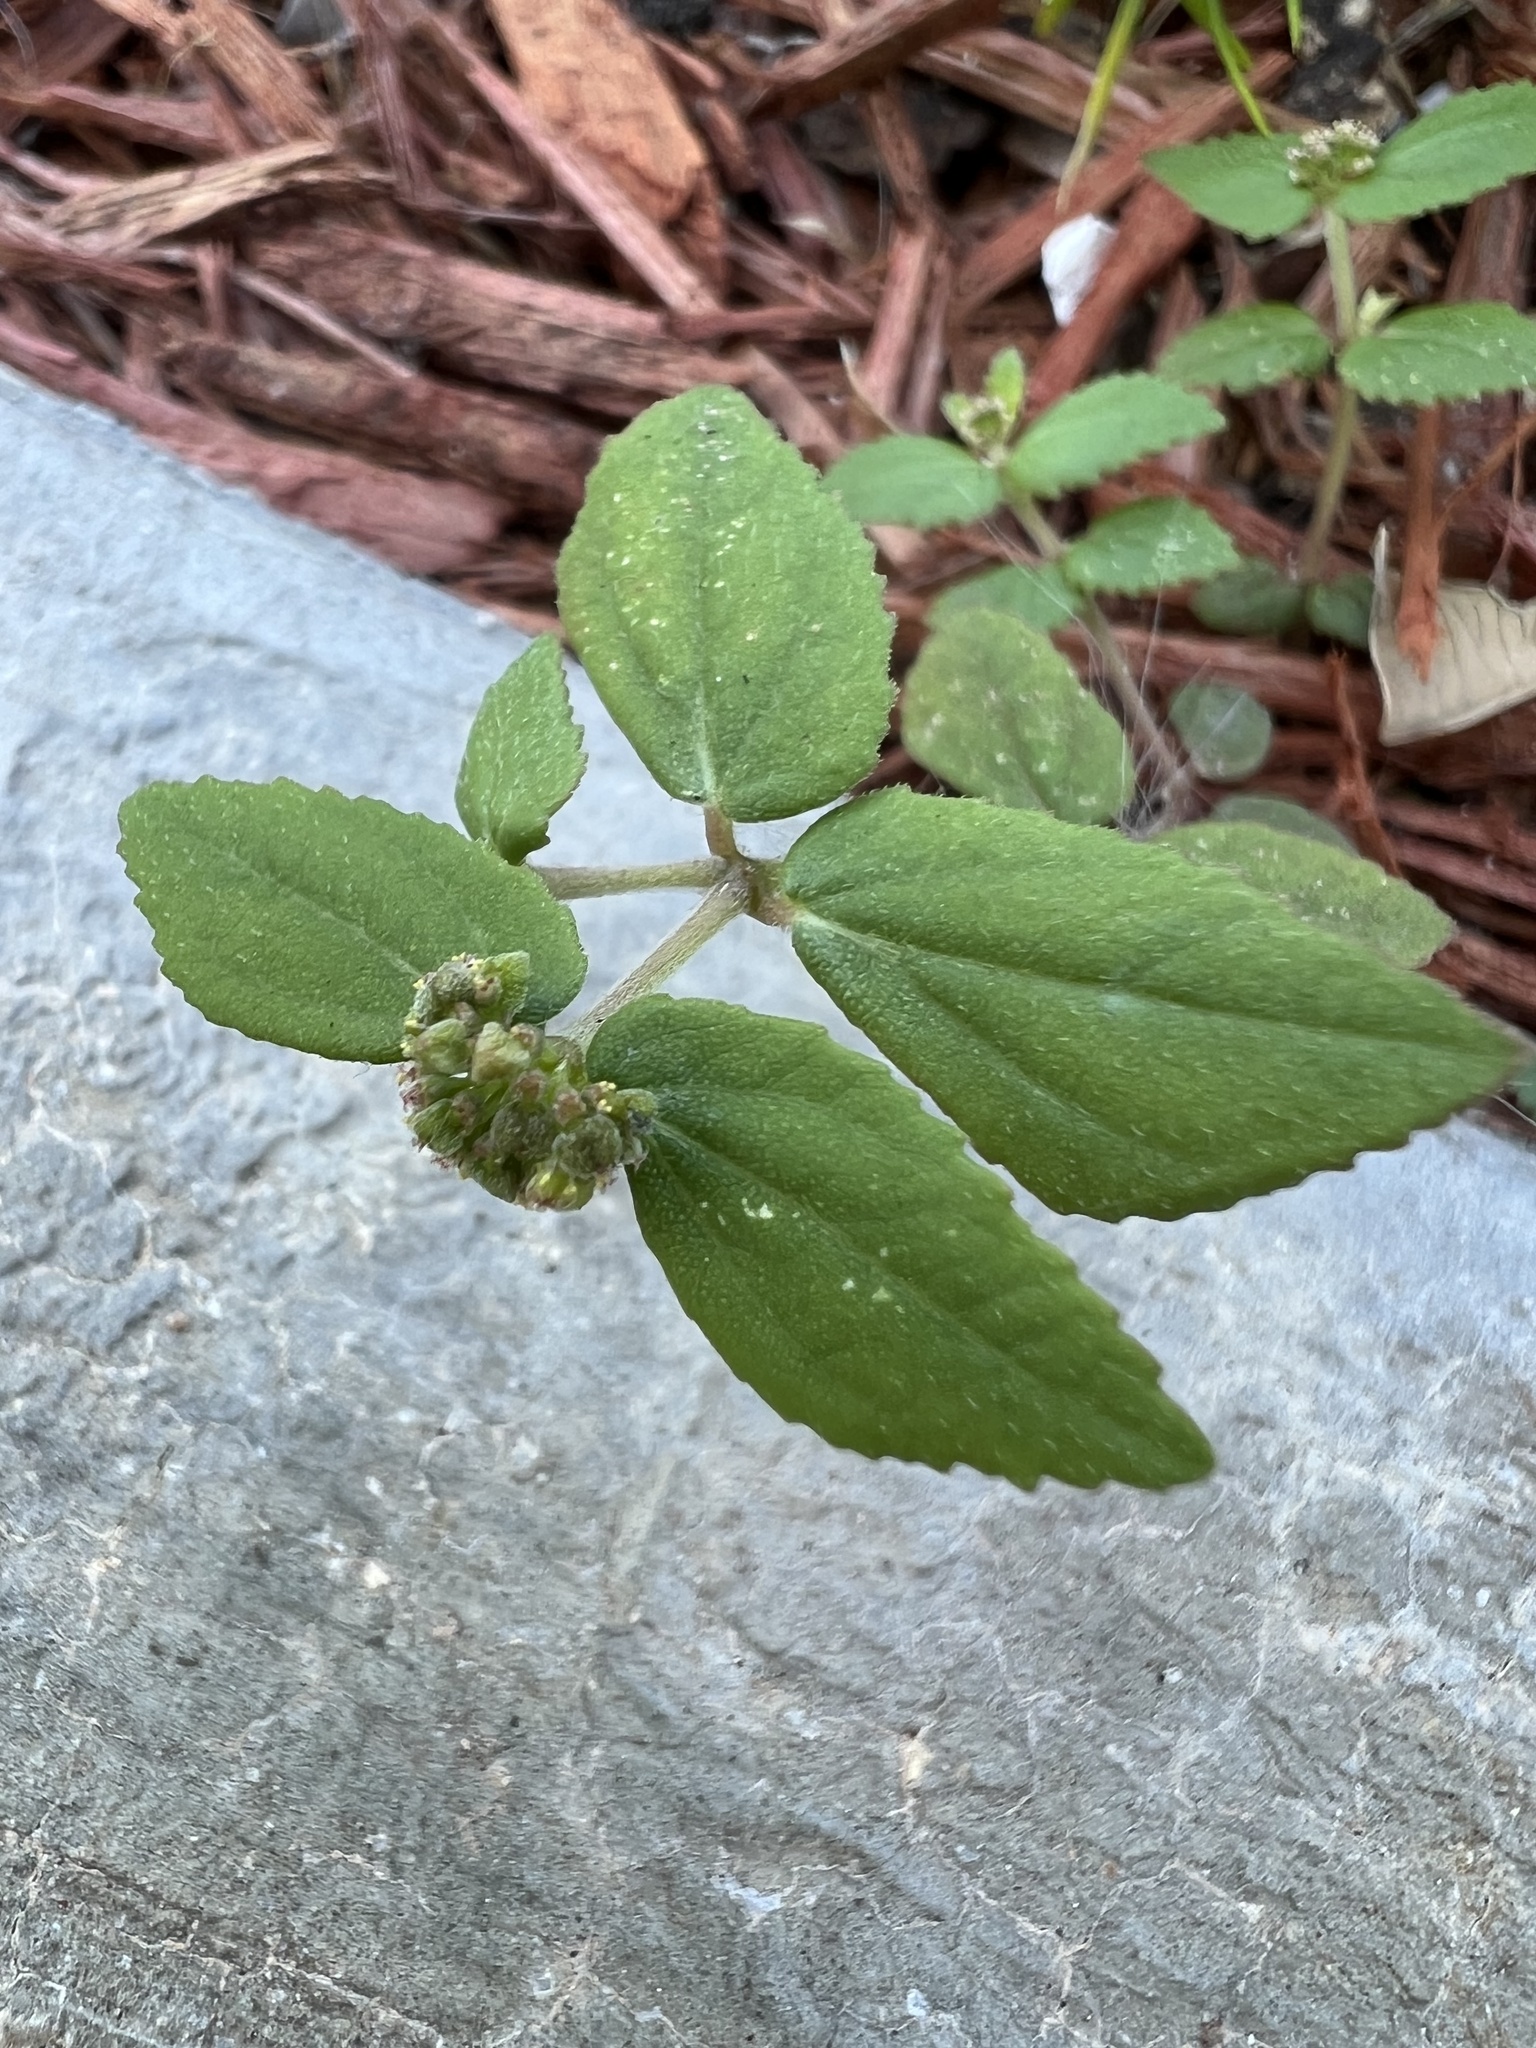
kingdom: Plantae
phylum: Tracheophyta
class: Magnoliopsida
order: Malpighiales
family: Euphorbiaceae
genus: Euphorbia
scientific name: Euphorbia ophthalmica
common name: Florida hammock sandmat
